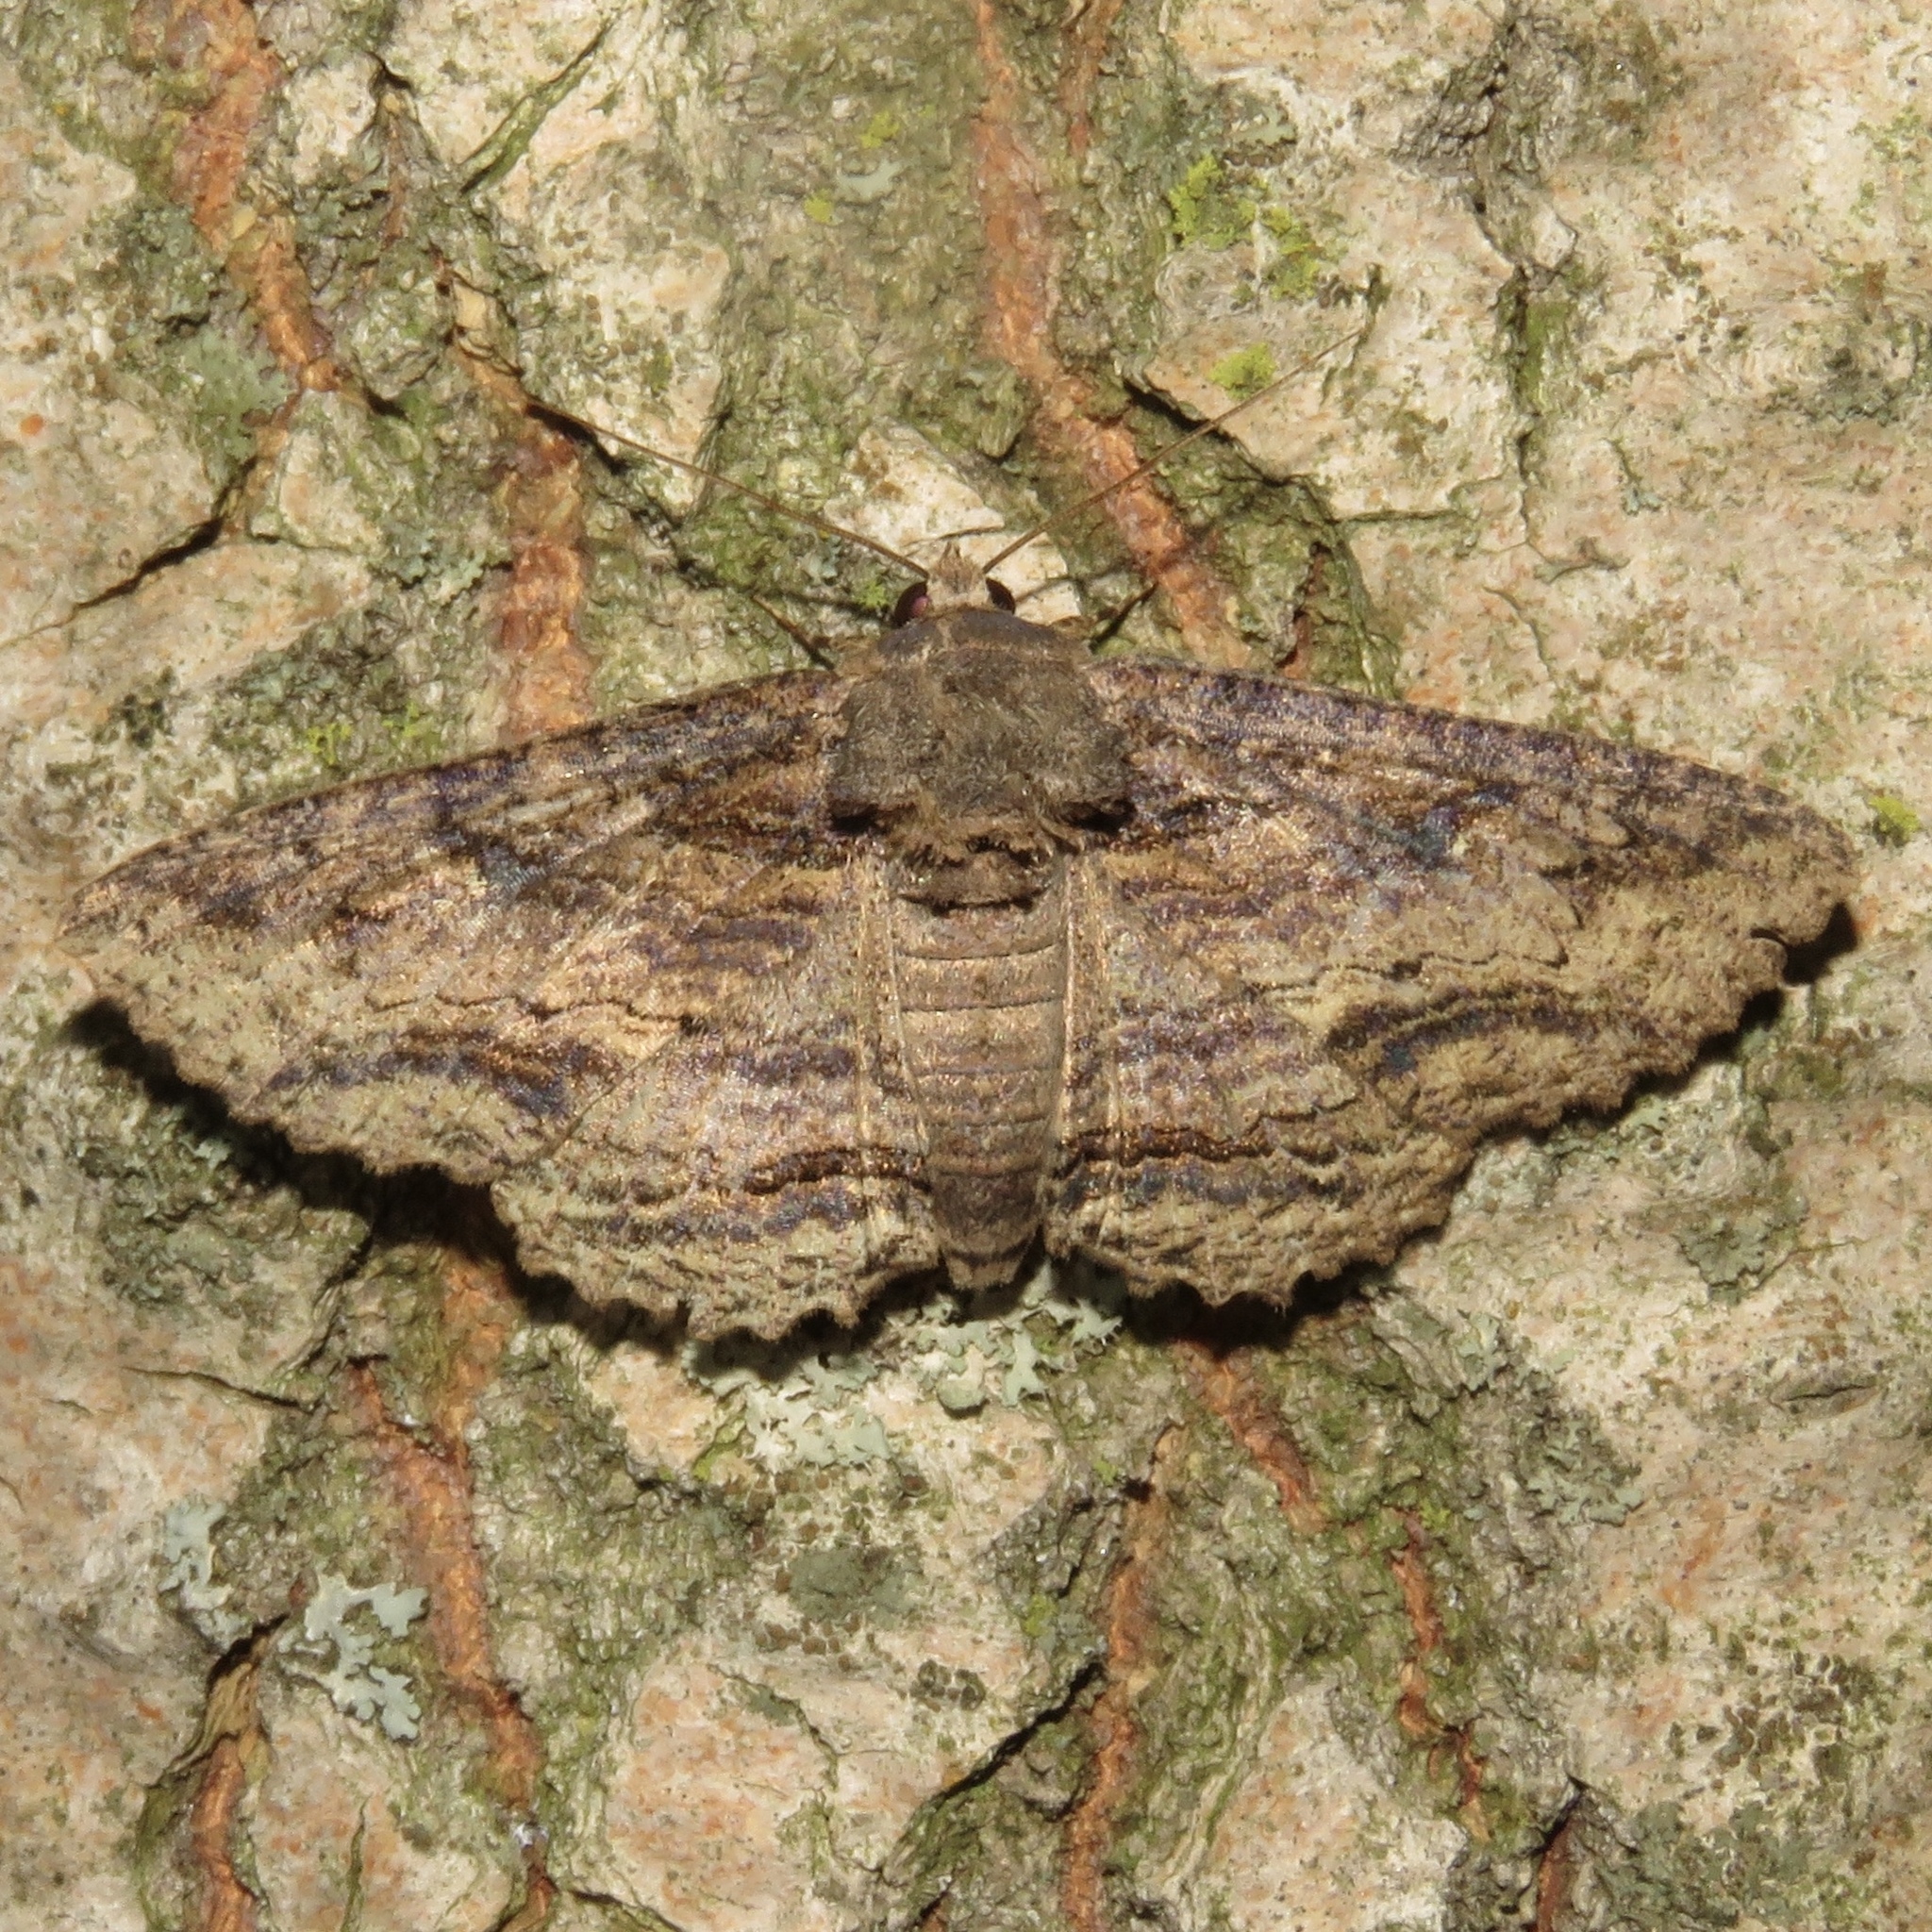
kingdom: Animalia
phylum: Arthropoda
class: Insecta
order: Lepidoptera
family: Erebidae
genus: Zale
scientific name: Zale lunata
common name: Lunate zale moth
